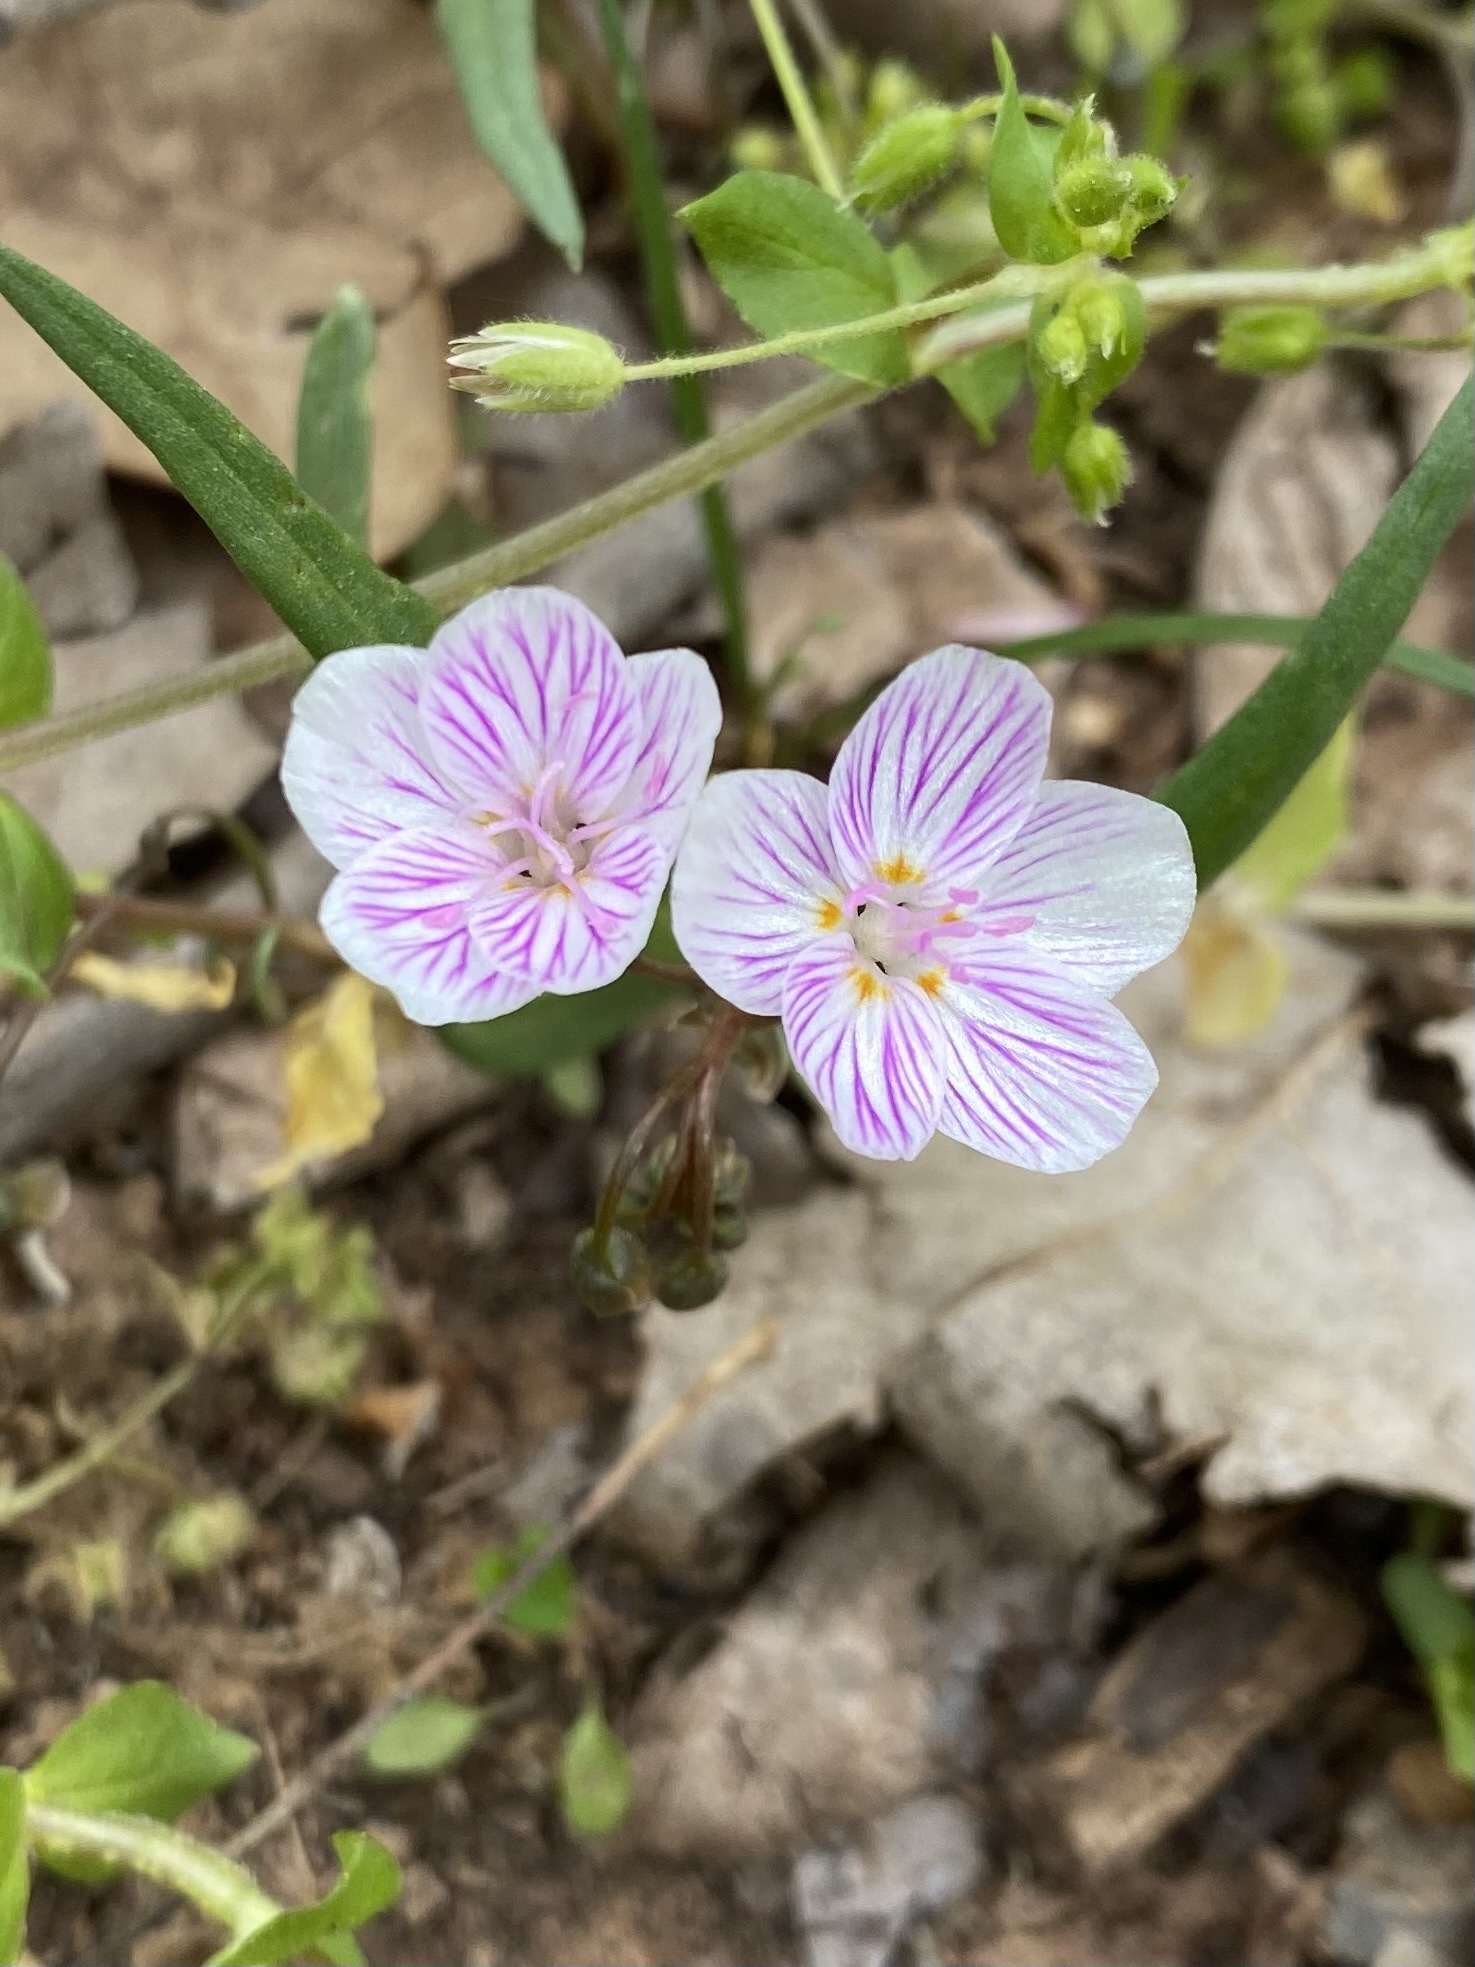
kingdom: Plantae
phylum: Tracheophyta
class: Magnoliopsida
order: Caryophyllales
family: Montiaceae
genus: Claytonia
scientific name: Claytonia virginica
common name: Virginia springbeauty
